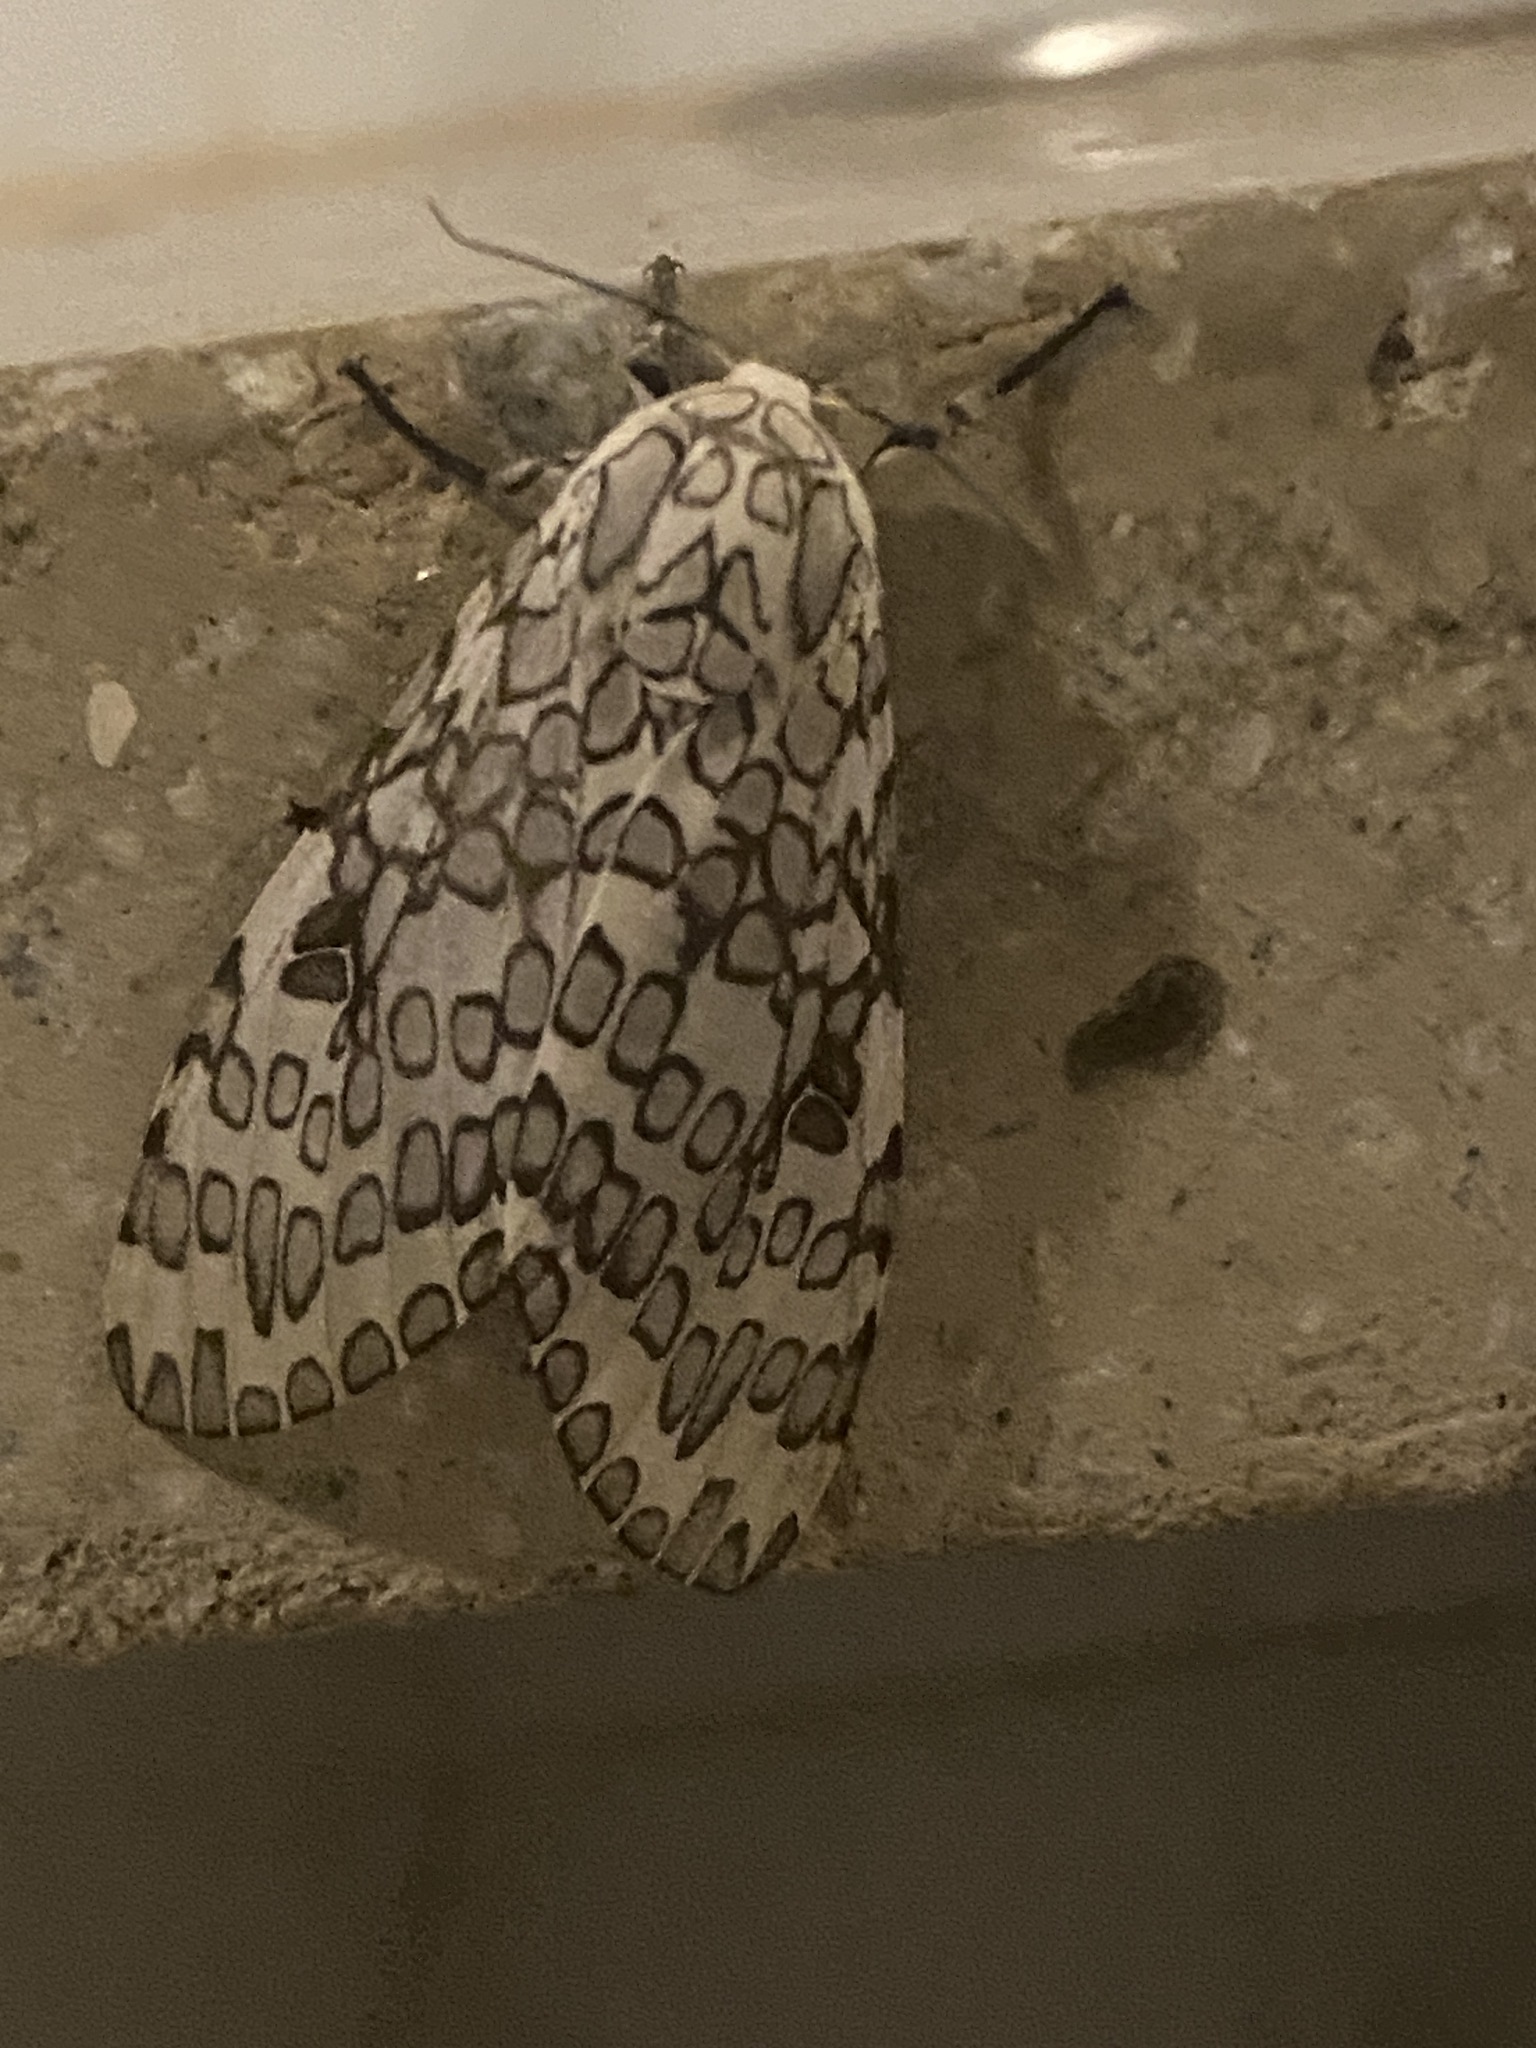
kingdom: Animalia
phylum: Arthropoda
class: Insecta
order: Lepidoptera
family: Erebidae
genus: Hypercompe
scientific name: Hypercompe abdominalis
